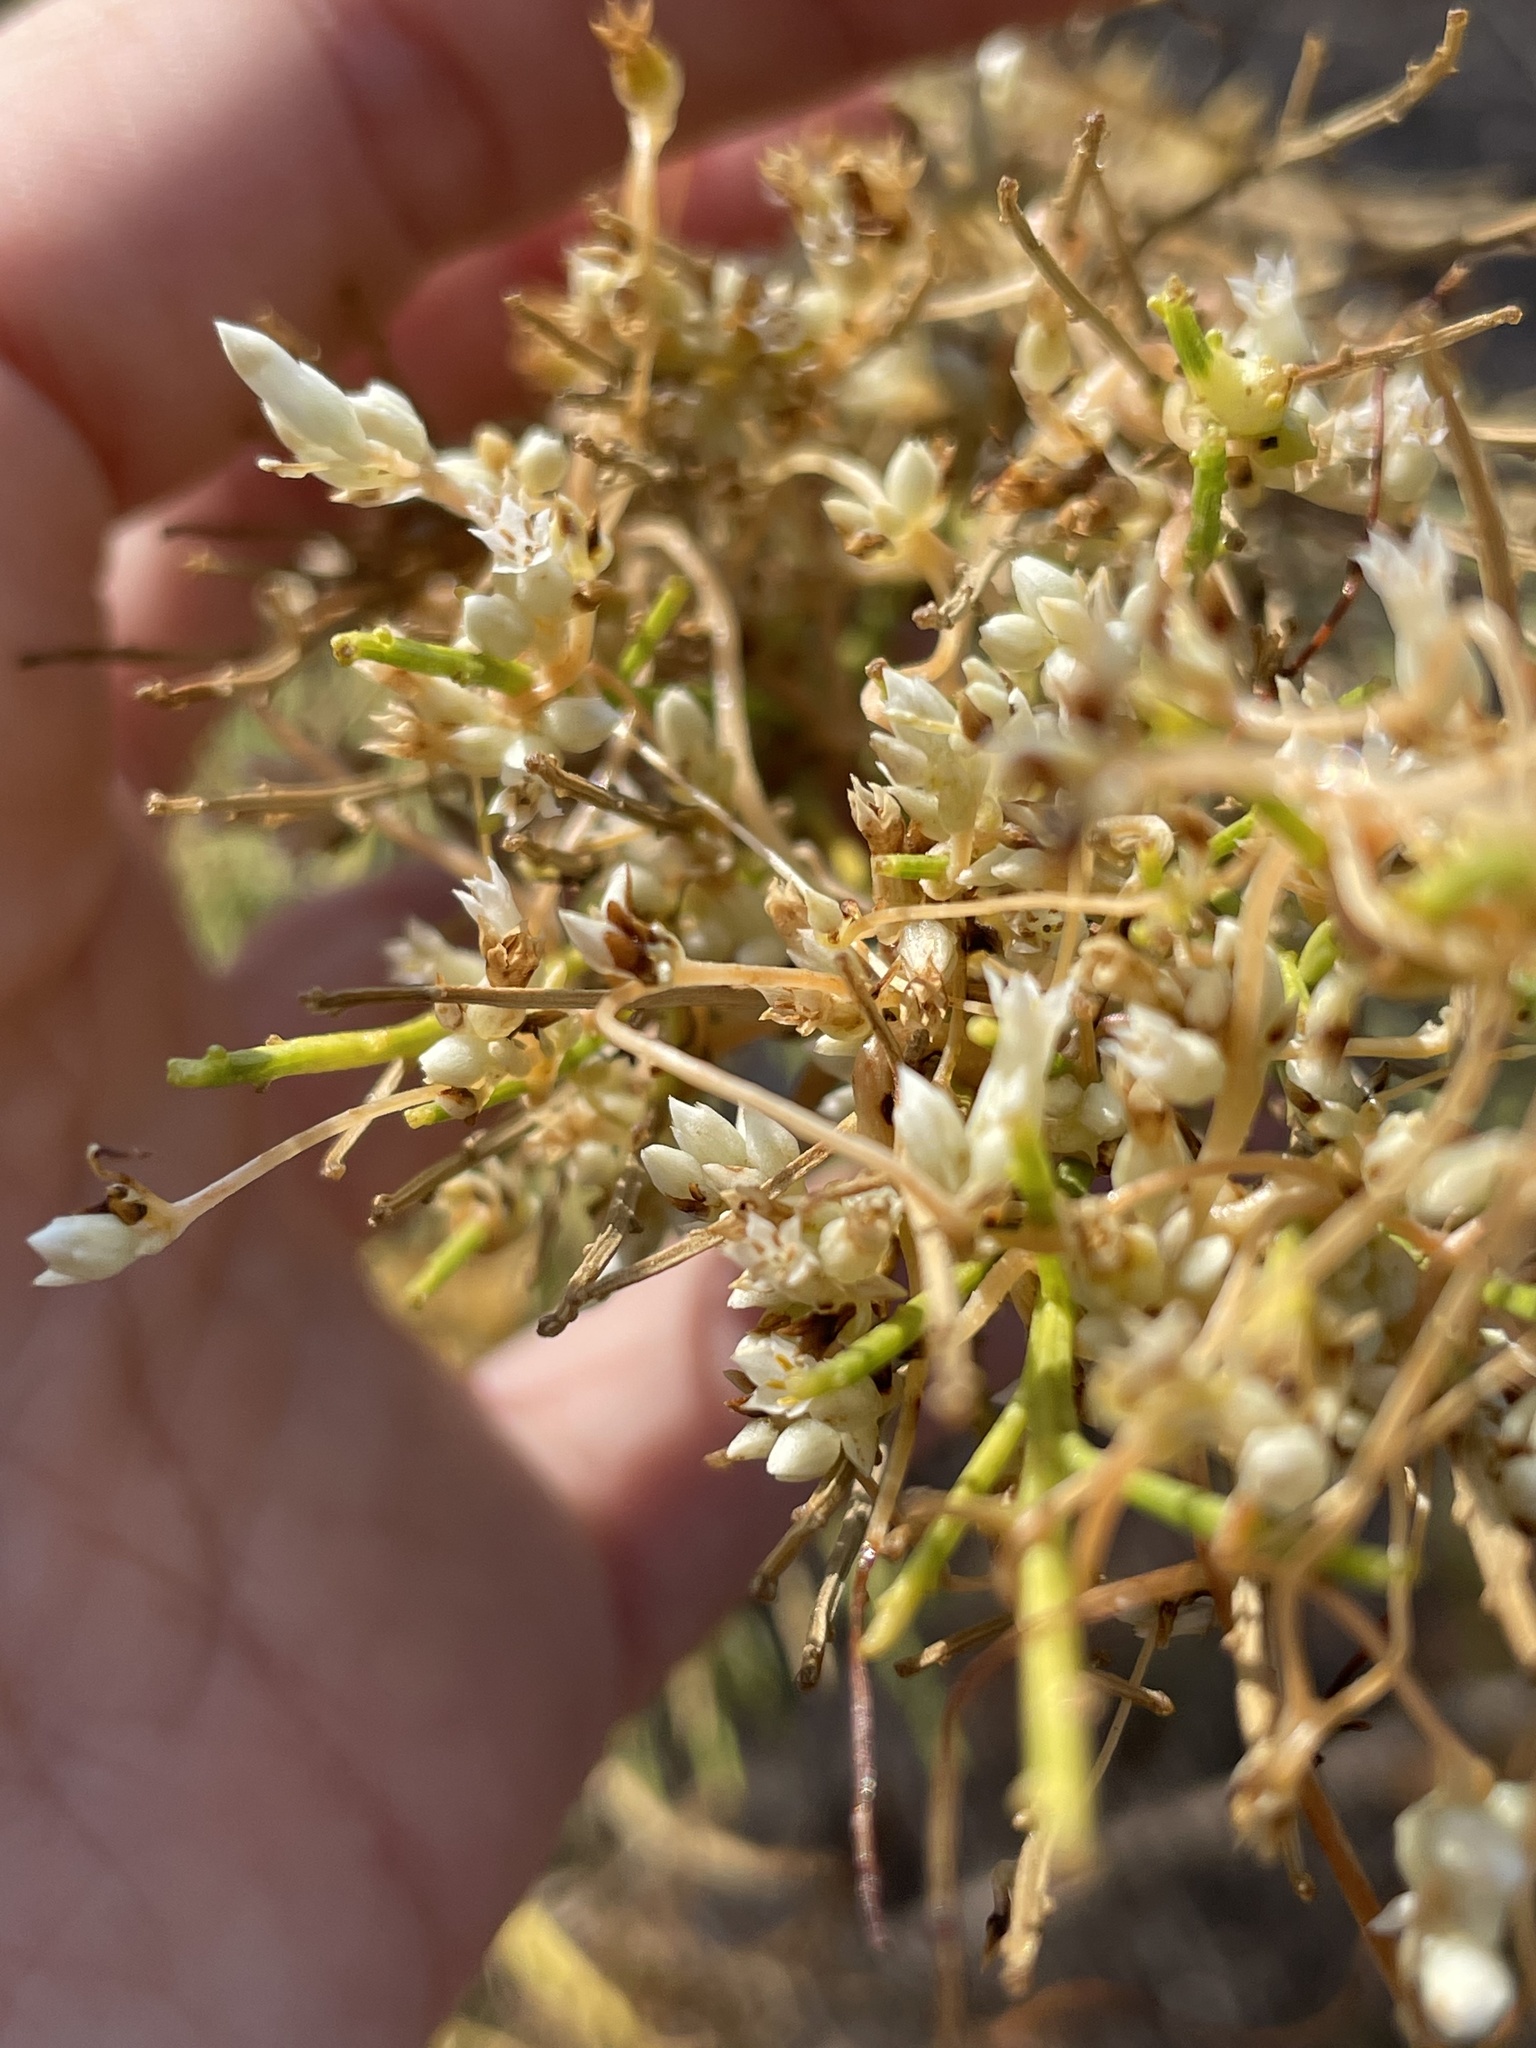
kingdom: Plantae
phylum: Tracheophyta
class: Magnoliopsida
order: Solanales
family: Convolvulaceae
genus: Cuscuta
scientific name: Cuscuta subinclusa
